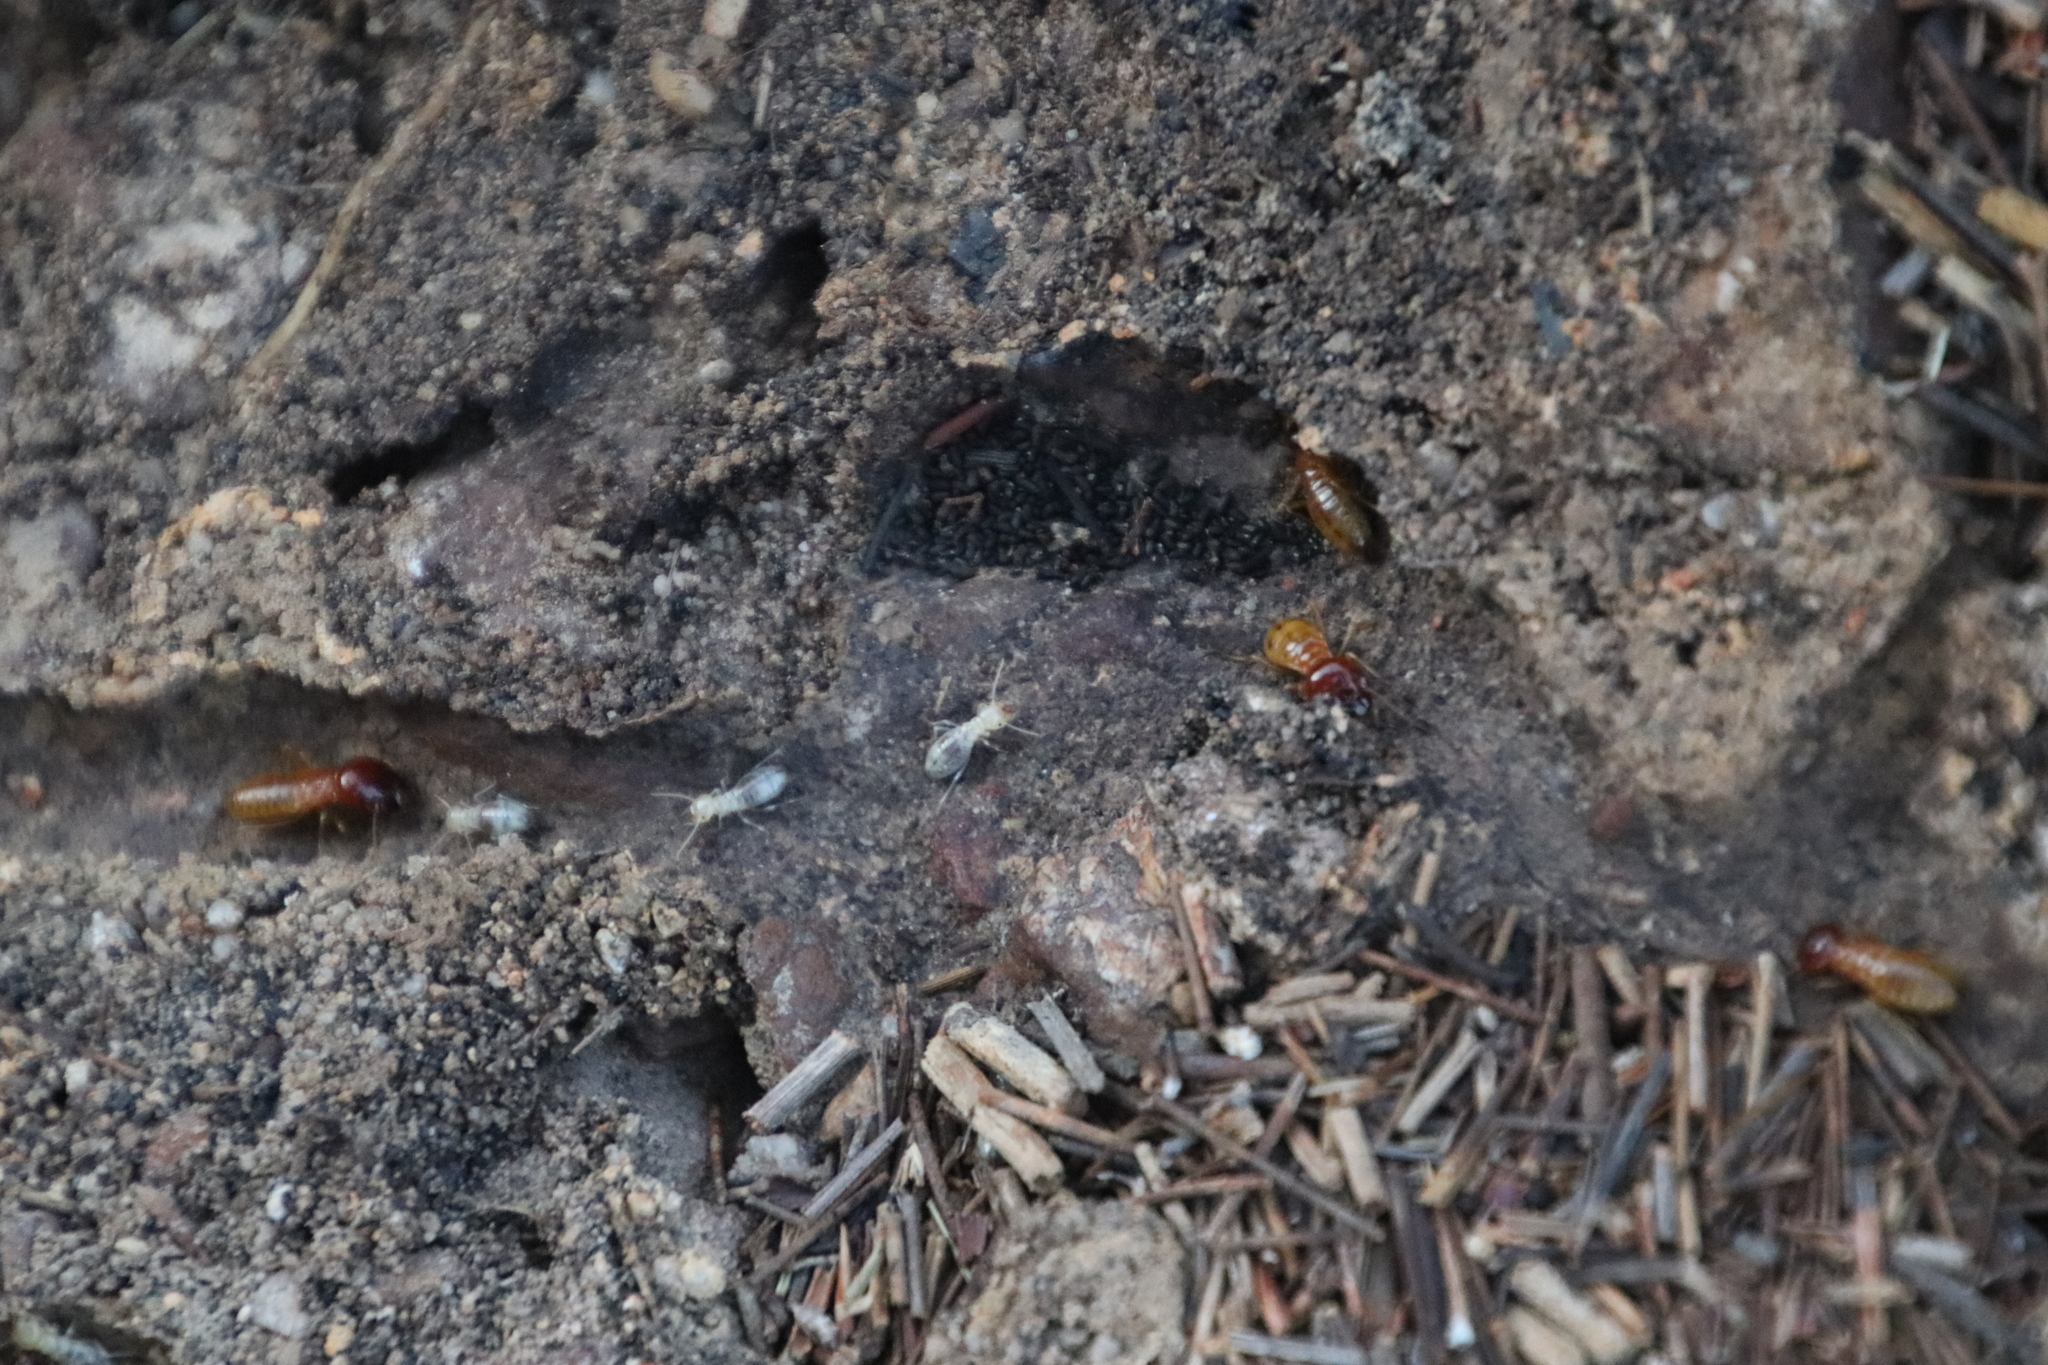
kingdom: Animalia
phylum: Arthropoda
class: Insecta
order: Blattodea
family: Hodotermitidae
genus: Microhodotermes
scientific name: Microhodotermes viator
